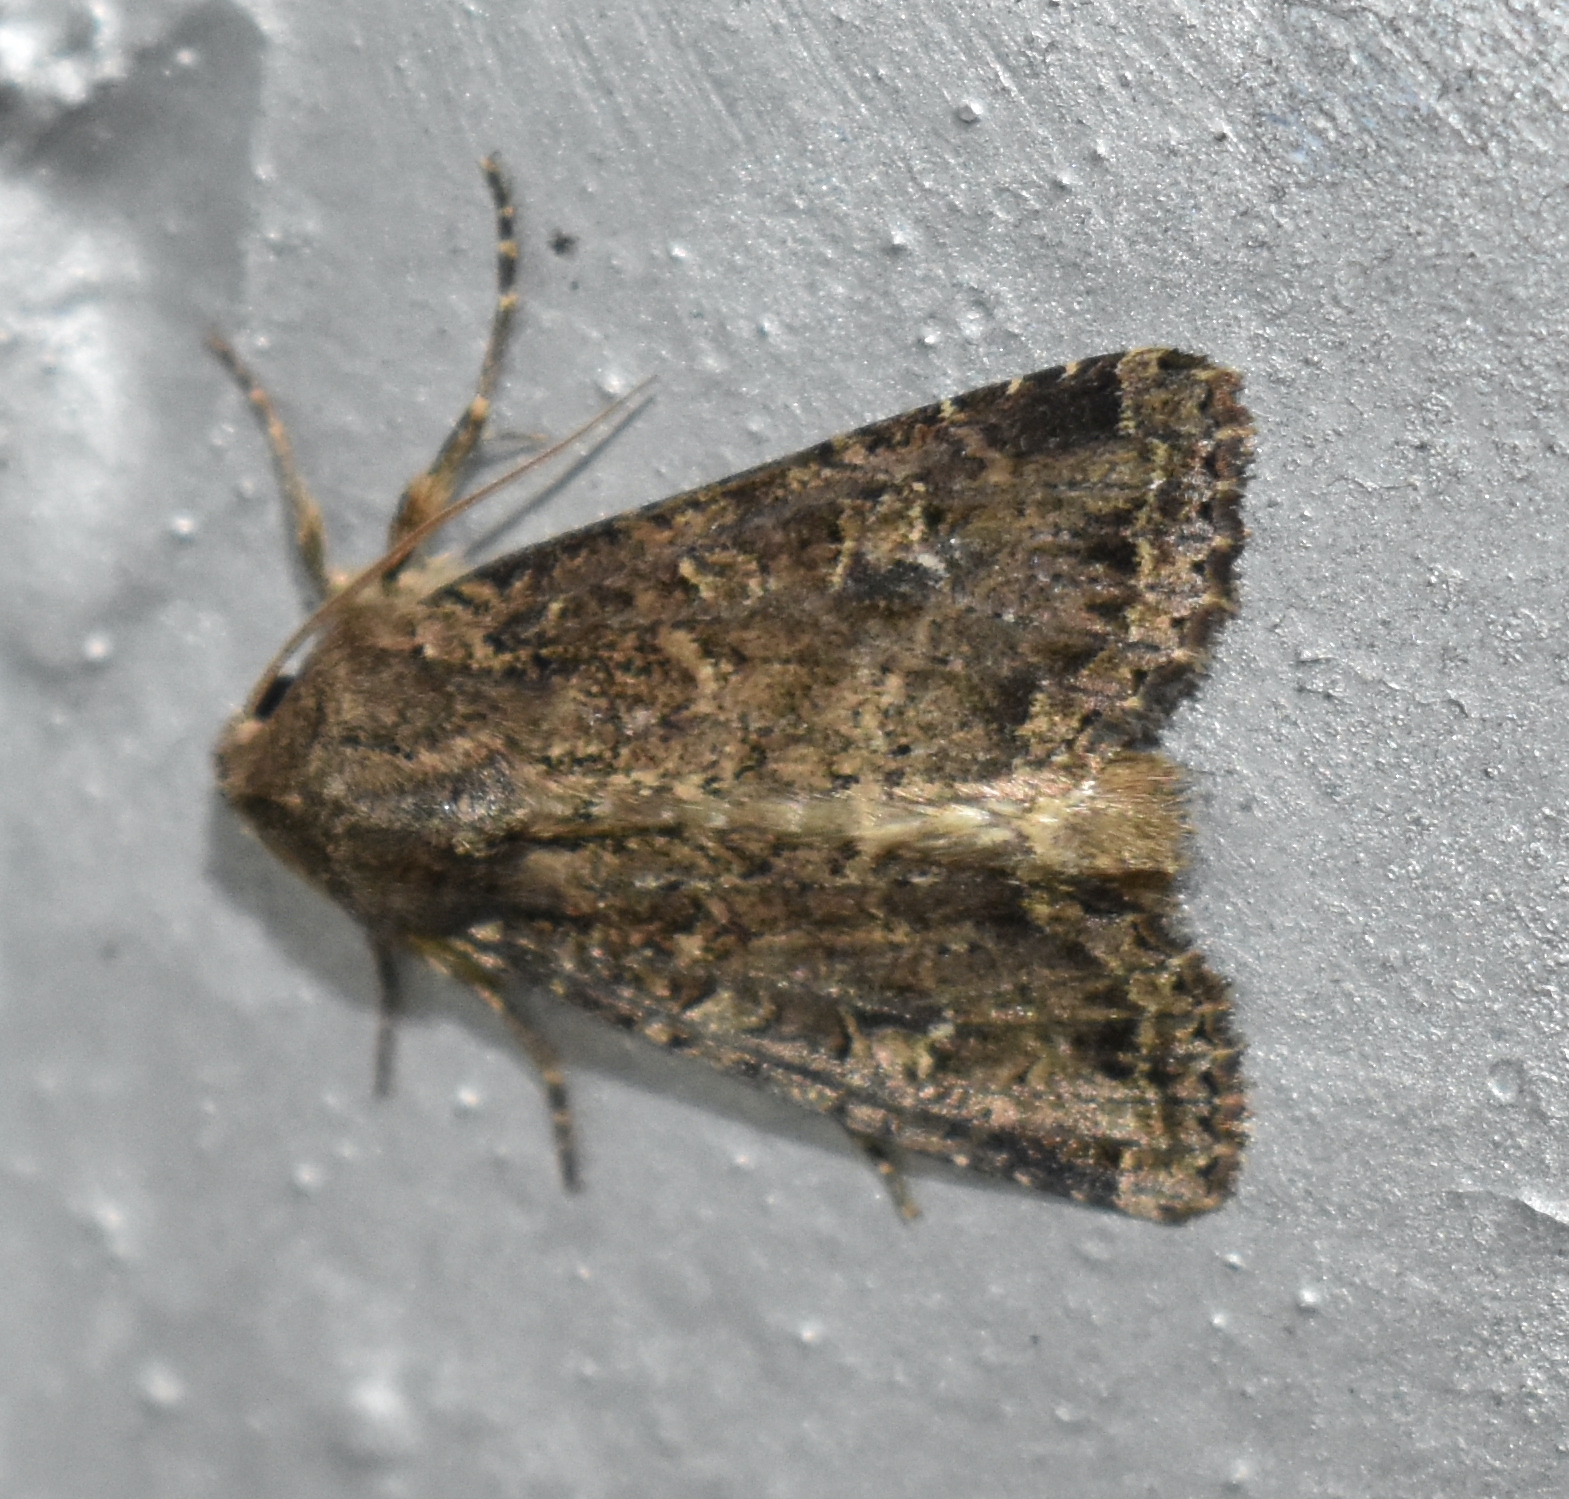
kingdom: Animalia
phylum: Arthropoda
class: Insecta
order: Lepidoptera
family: Noctuidae
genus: Apamea
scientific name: Apamea devastator
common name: Glassy cutworm
